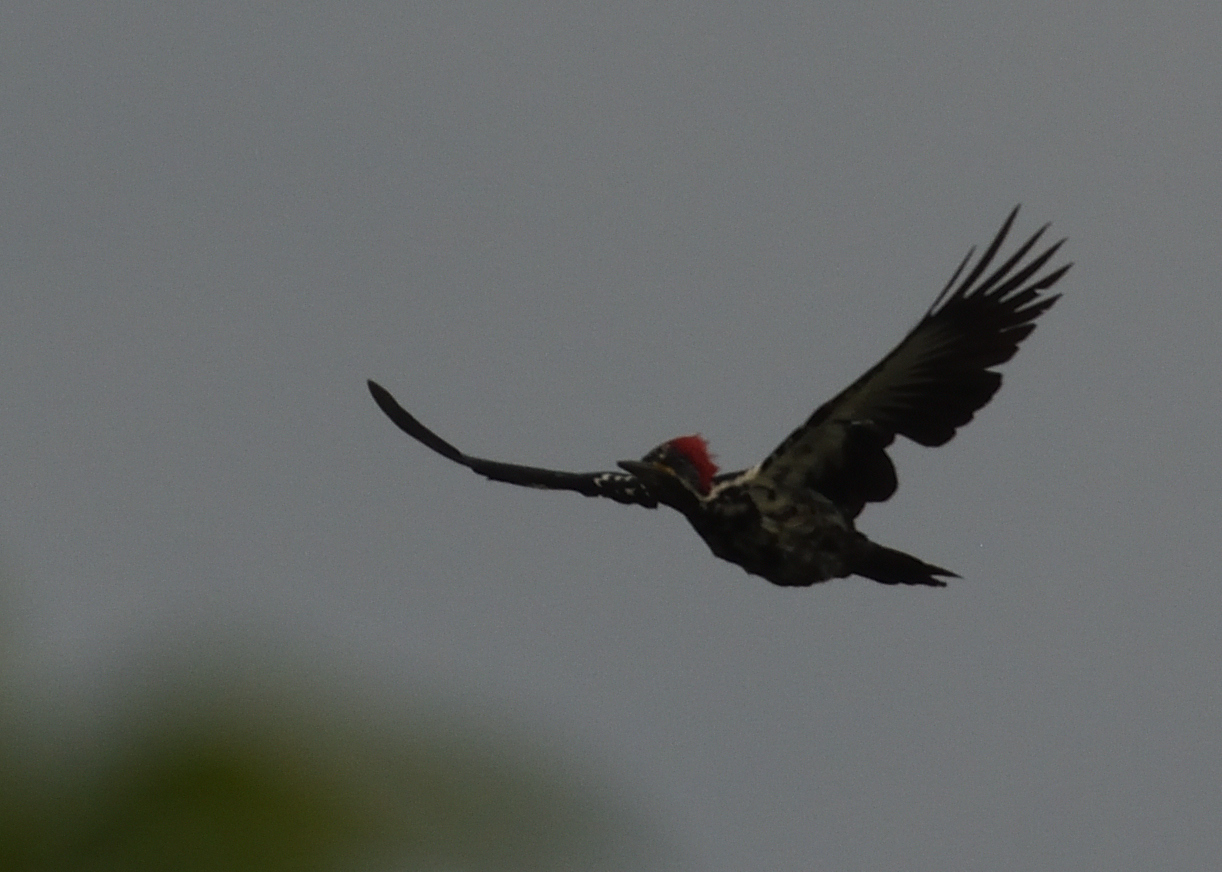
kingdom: Animalia
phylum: Chordata
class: Aves
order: Piciformes
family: Picidae
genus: Dryocopus
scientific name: Dryocopus lineatus
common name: Lineated woodpecker
